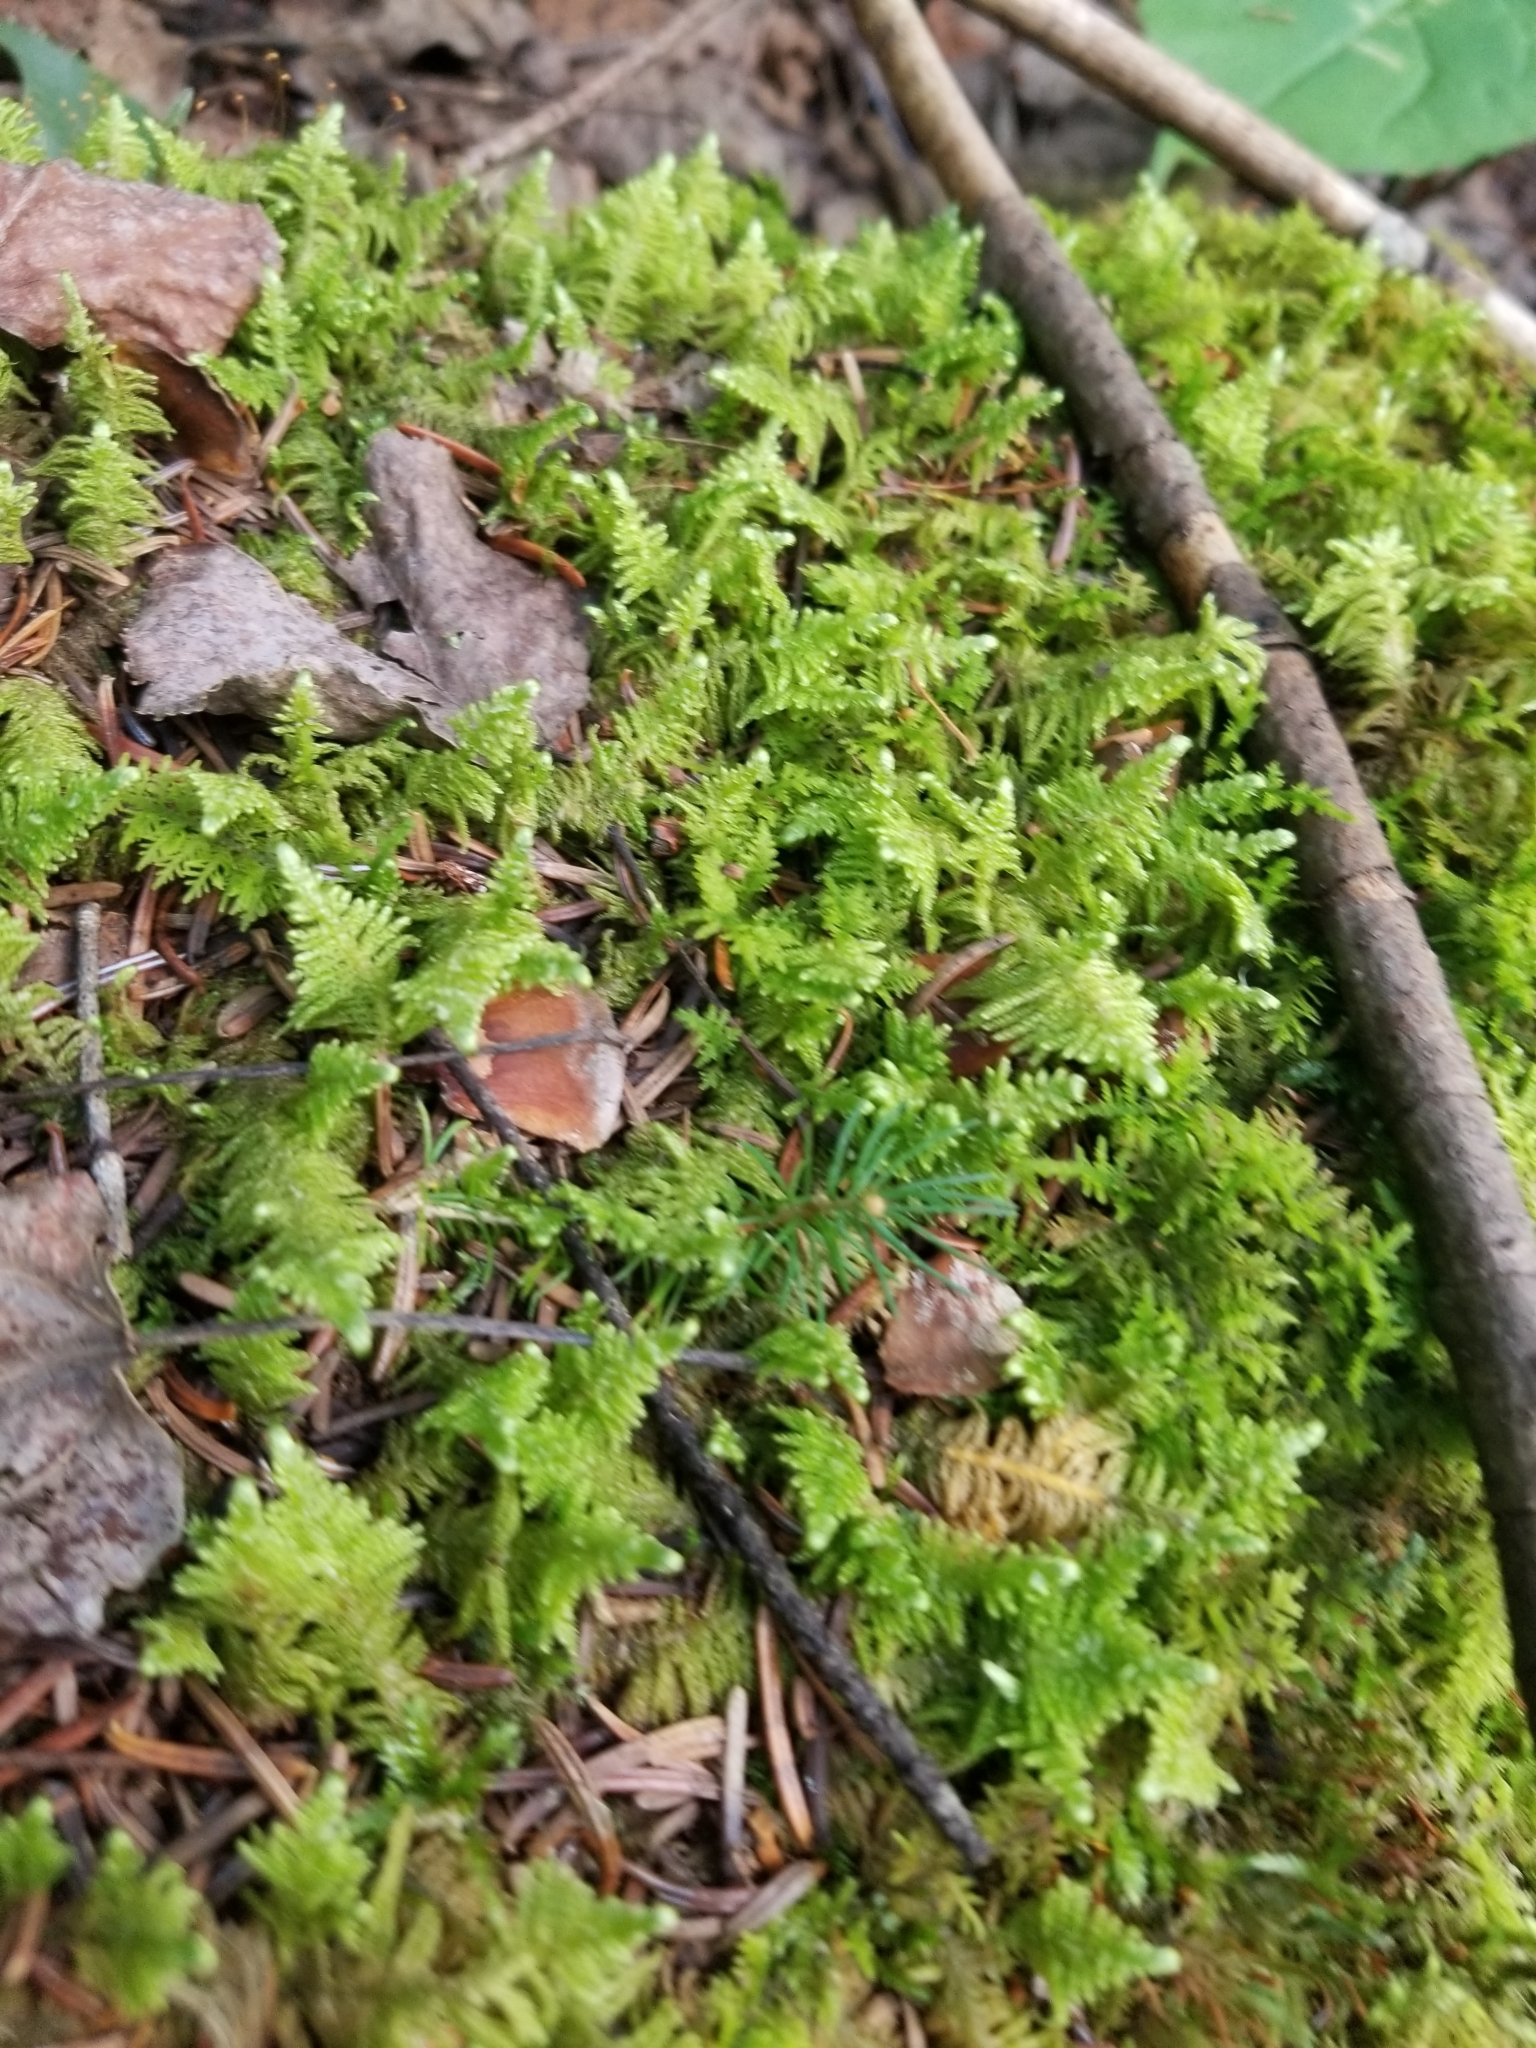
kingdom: Plantae
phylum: Bryophyta
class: Bryopsida
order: Hypnales
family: Pylaisiaceae
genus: Ptilium
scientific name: Ptilium crista-castrensis
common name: Knight's plume moss
